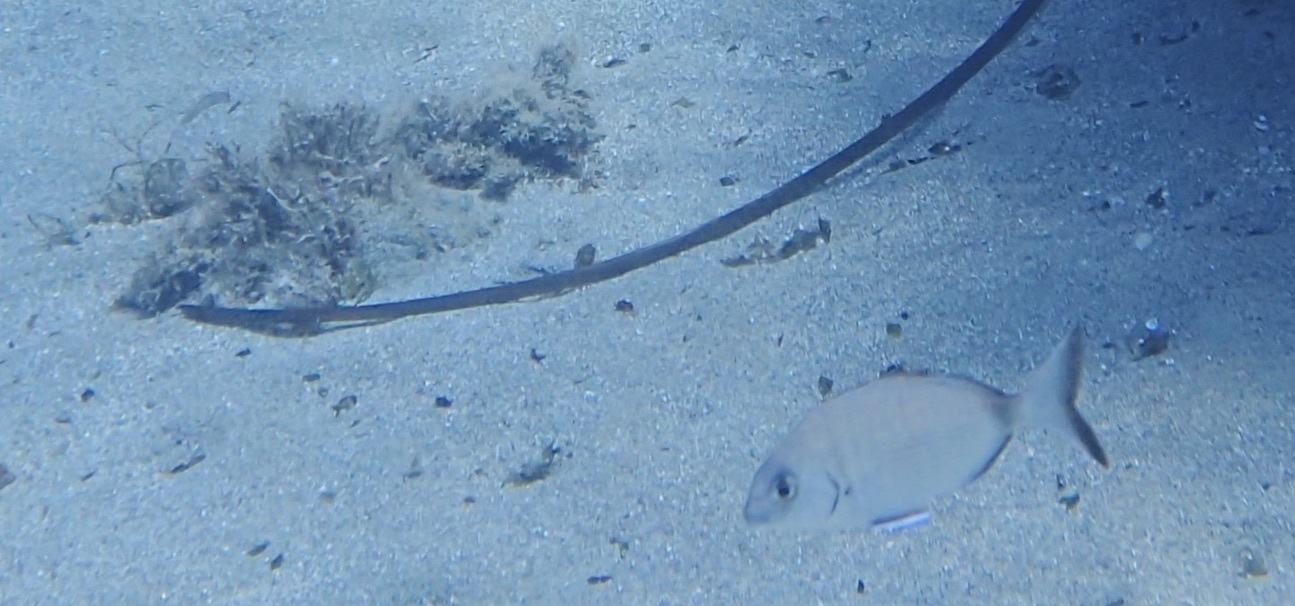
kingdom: Animalia
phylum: Chordata
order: Perciformes
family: Sparidae
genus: Diplodus
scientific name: Diplodus sargus
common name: White seabream
